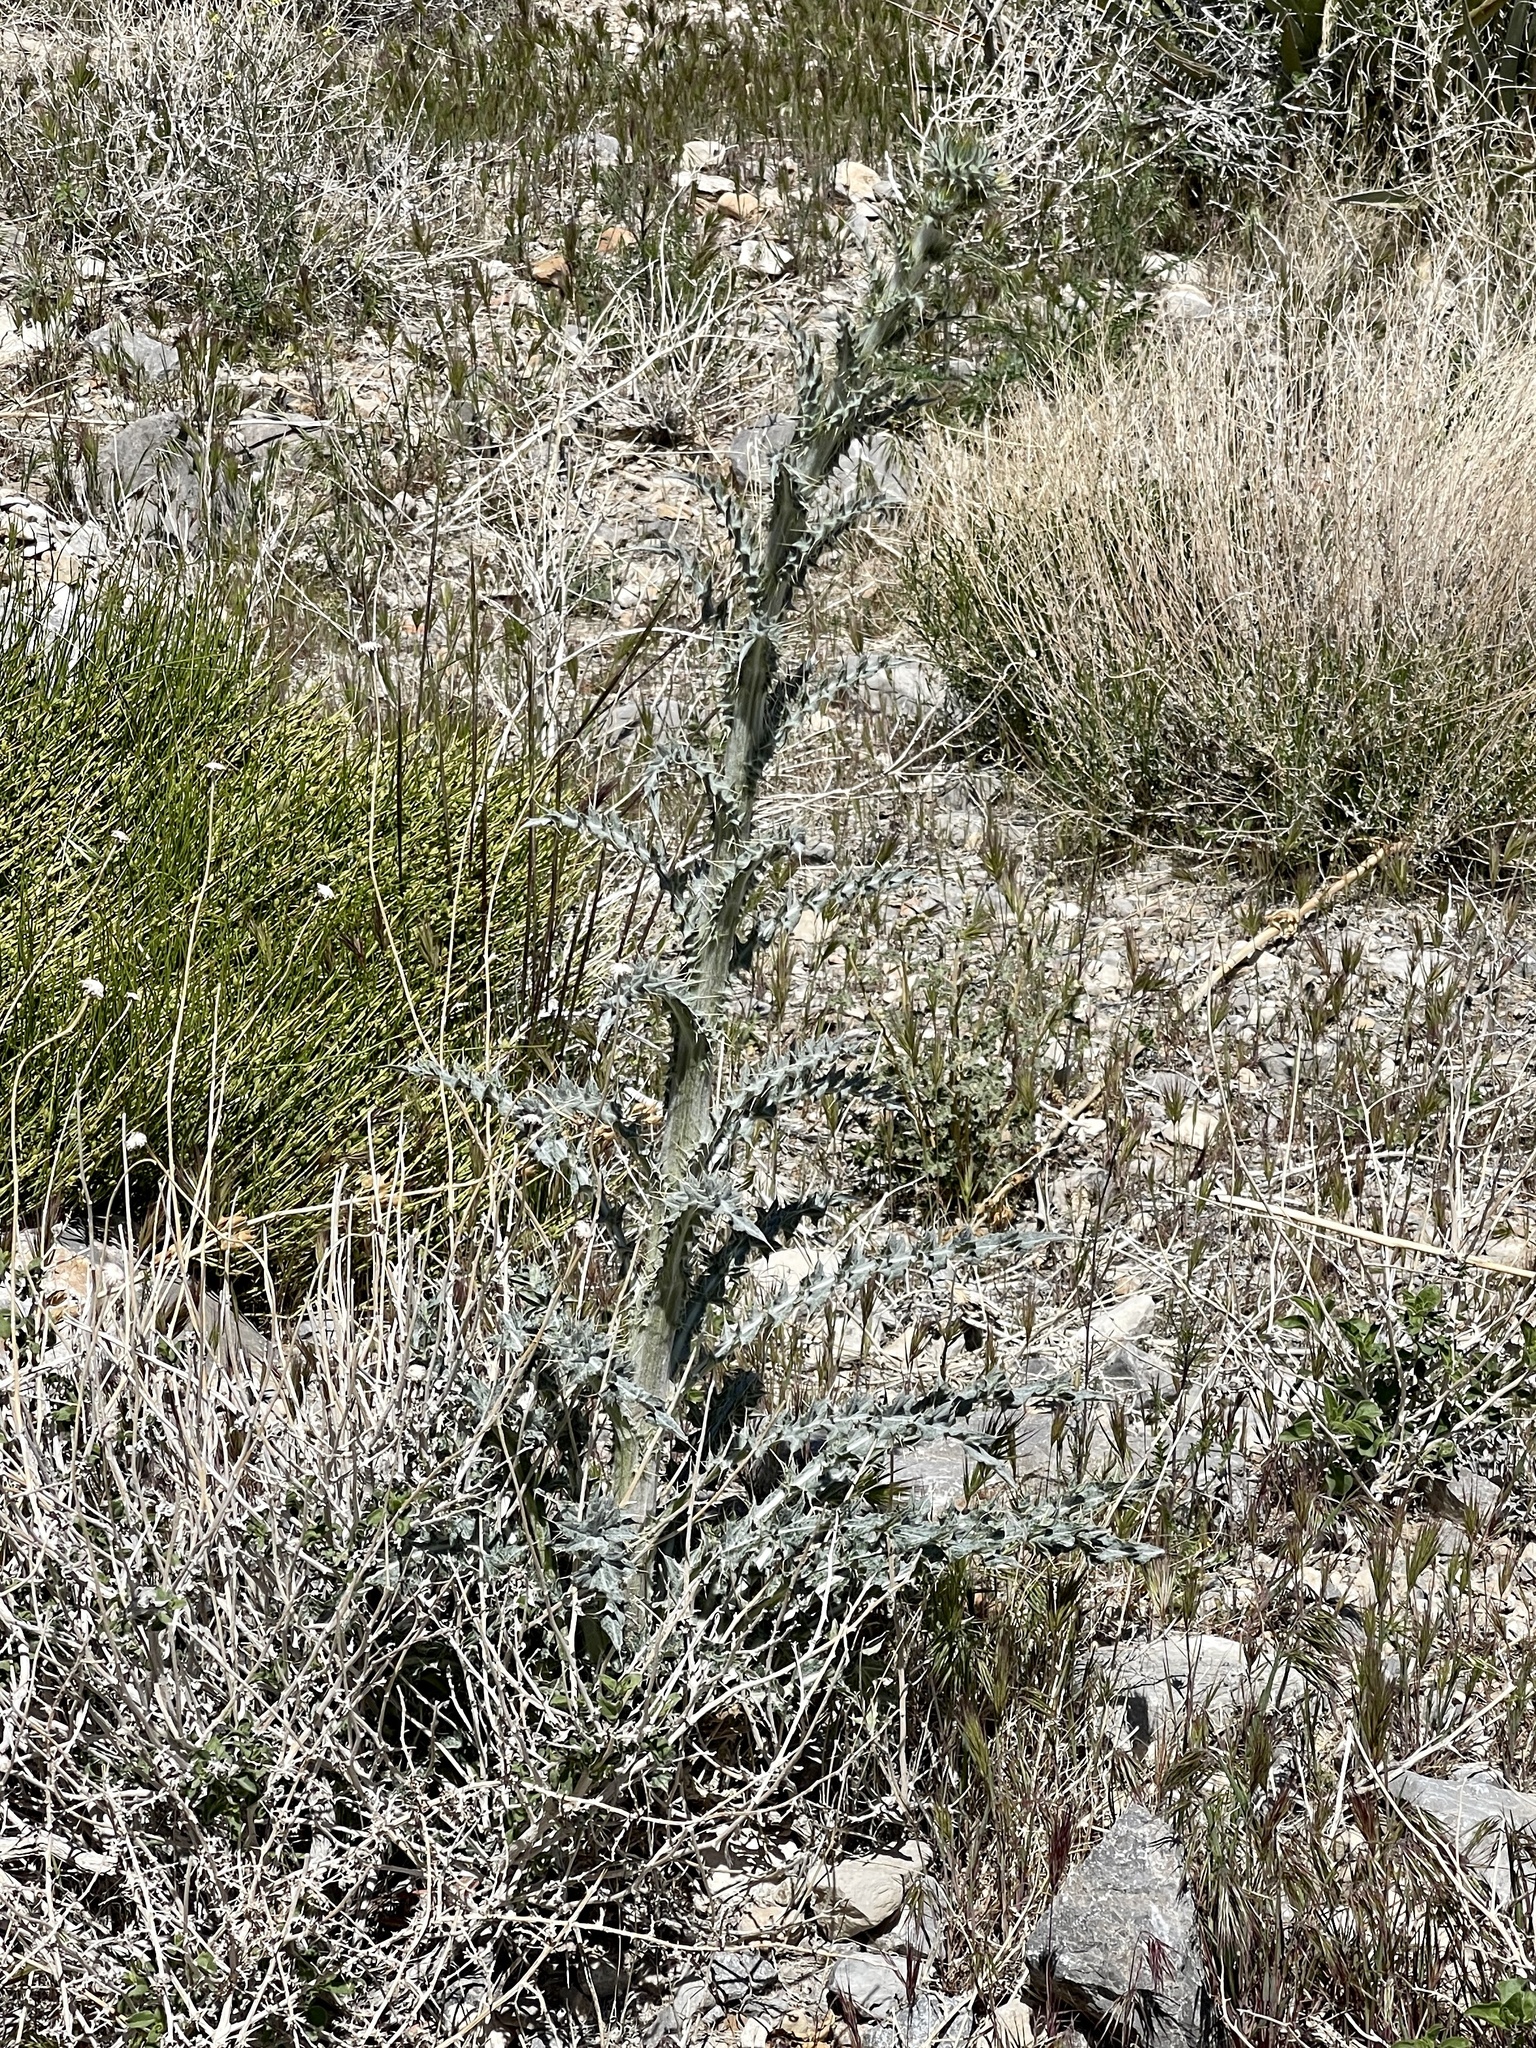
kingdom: Plantae
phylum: Tracheophyta
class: Magnoliopsida
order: Asterales
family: Asteraceae
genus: Cirsium
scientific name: Cirsium neomexicanum
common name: New mexico thistle
